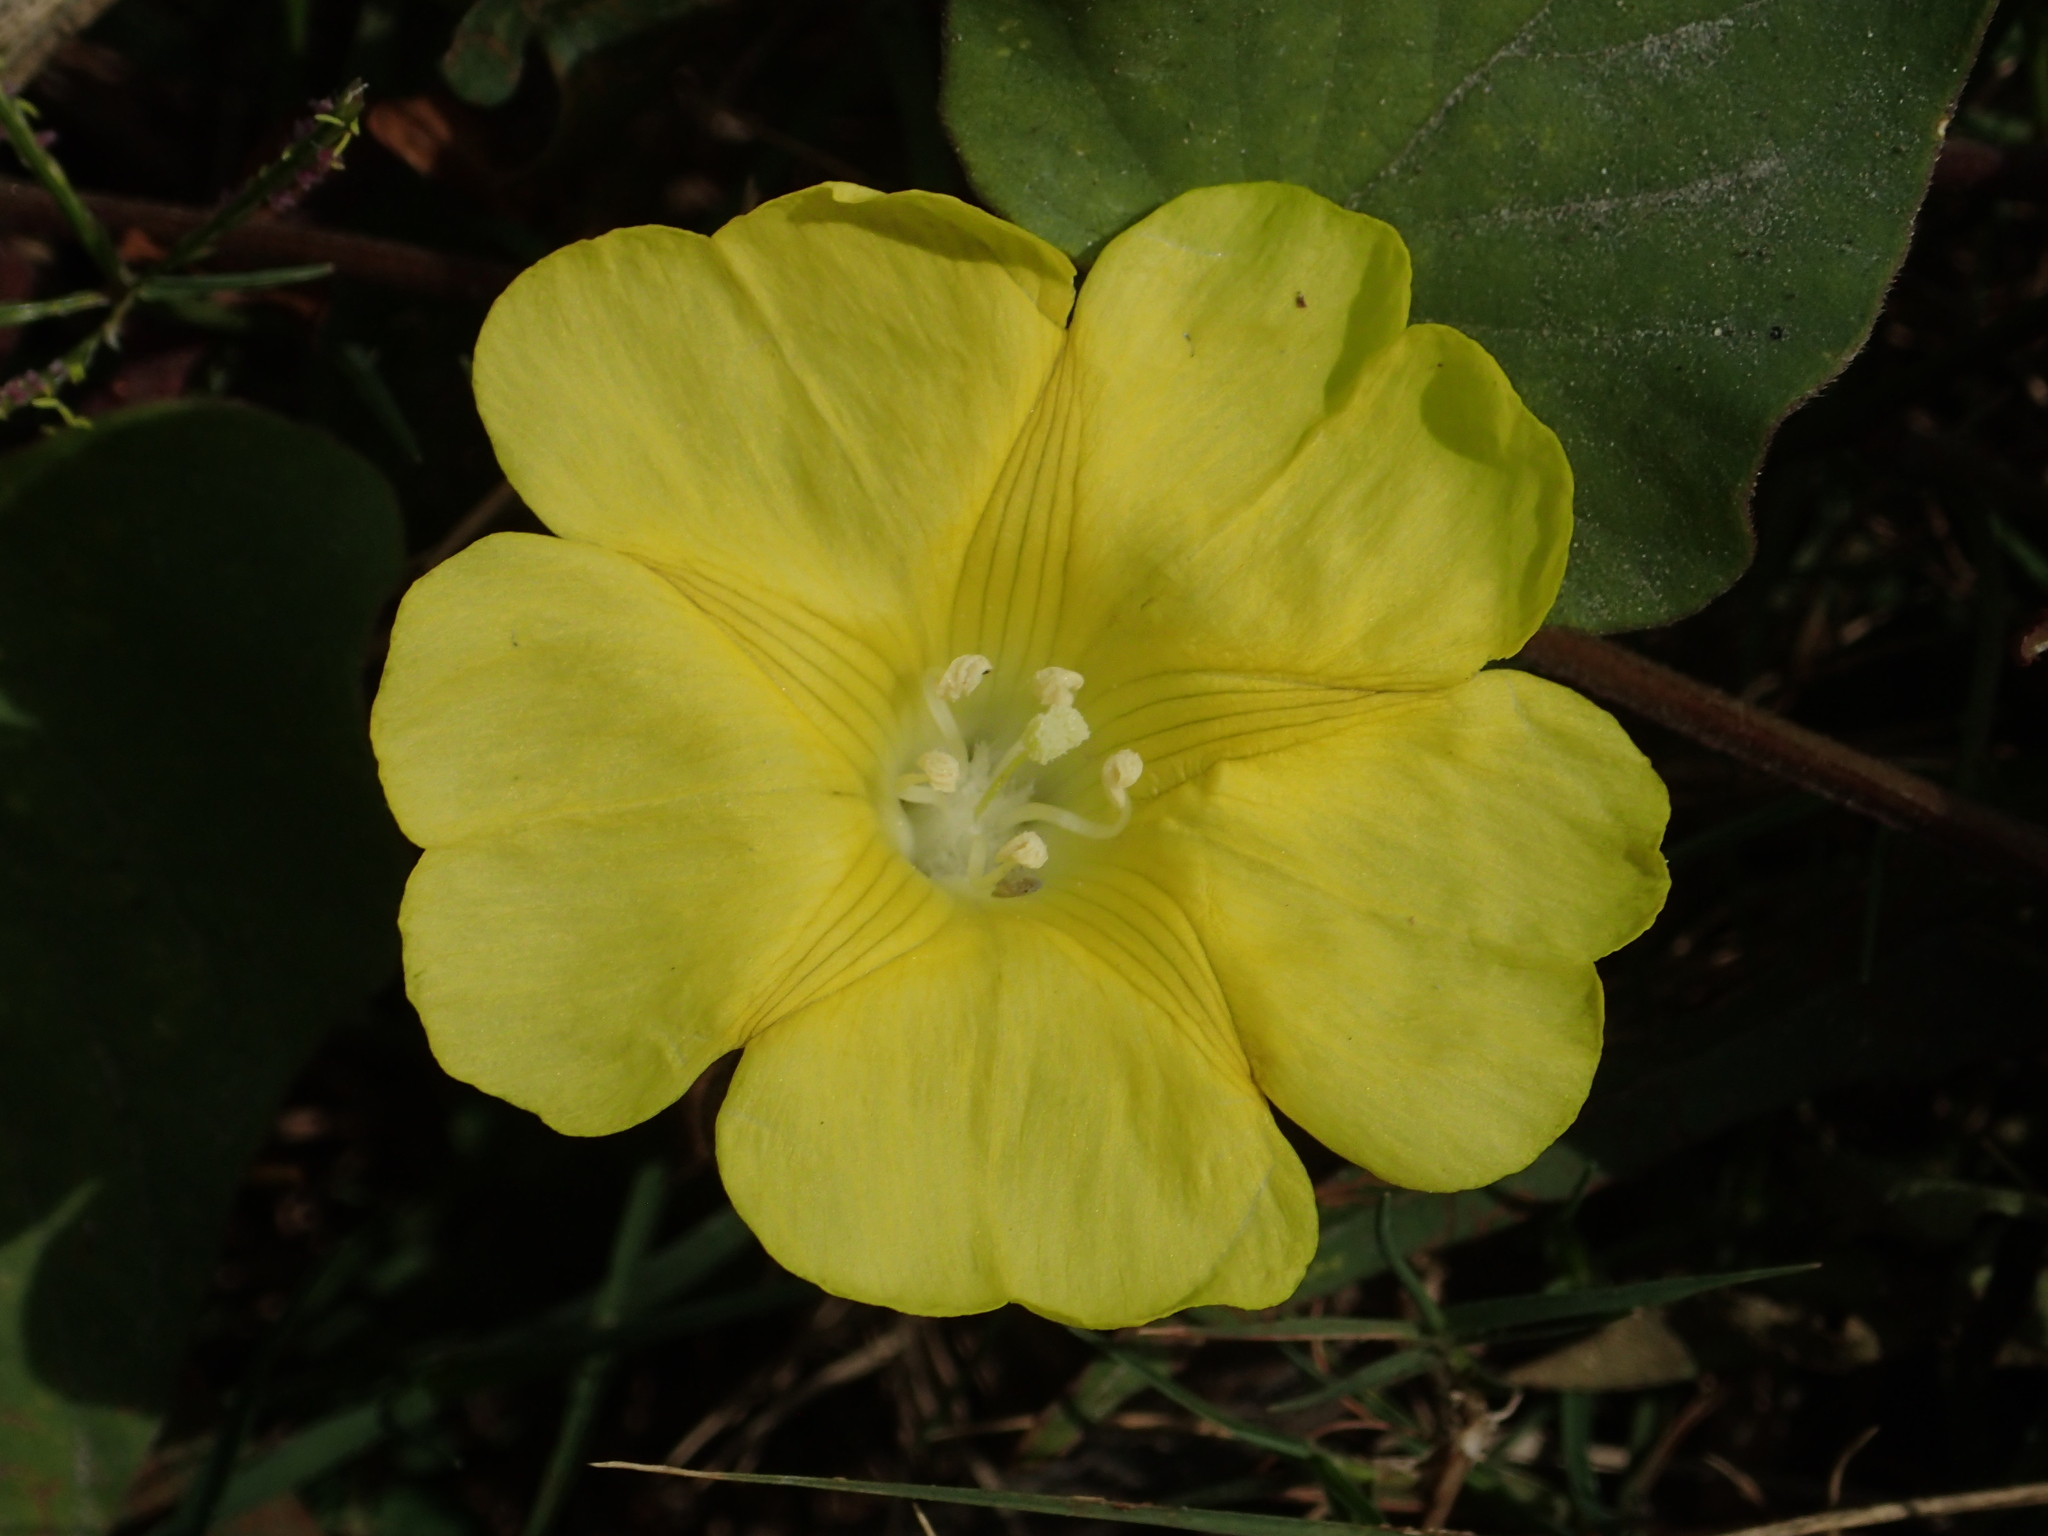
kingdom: Plantae
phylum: Tracheophyta
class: Magnoliopsida
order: Solanales
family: Convolvulaceae
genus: Merremia
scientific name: Merremia gemella
